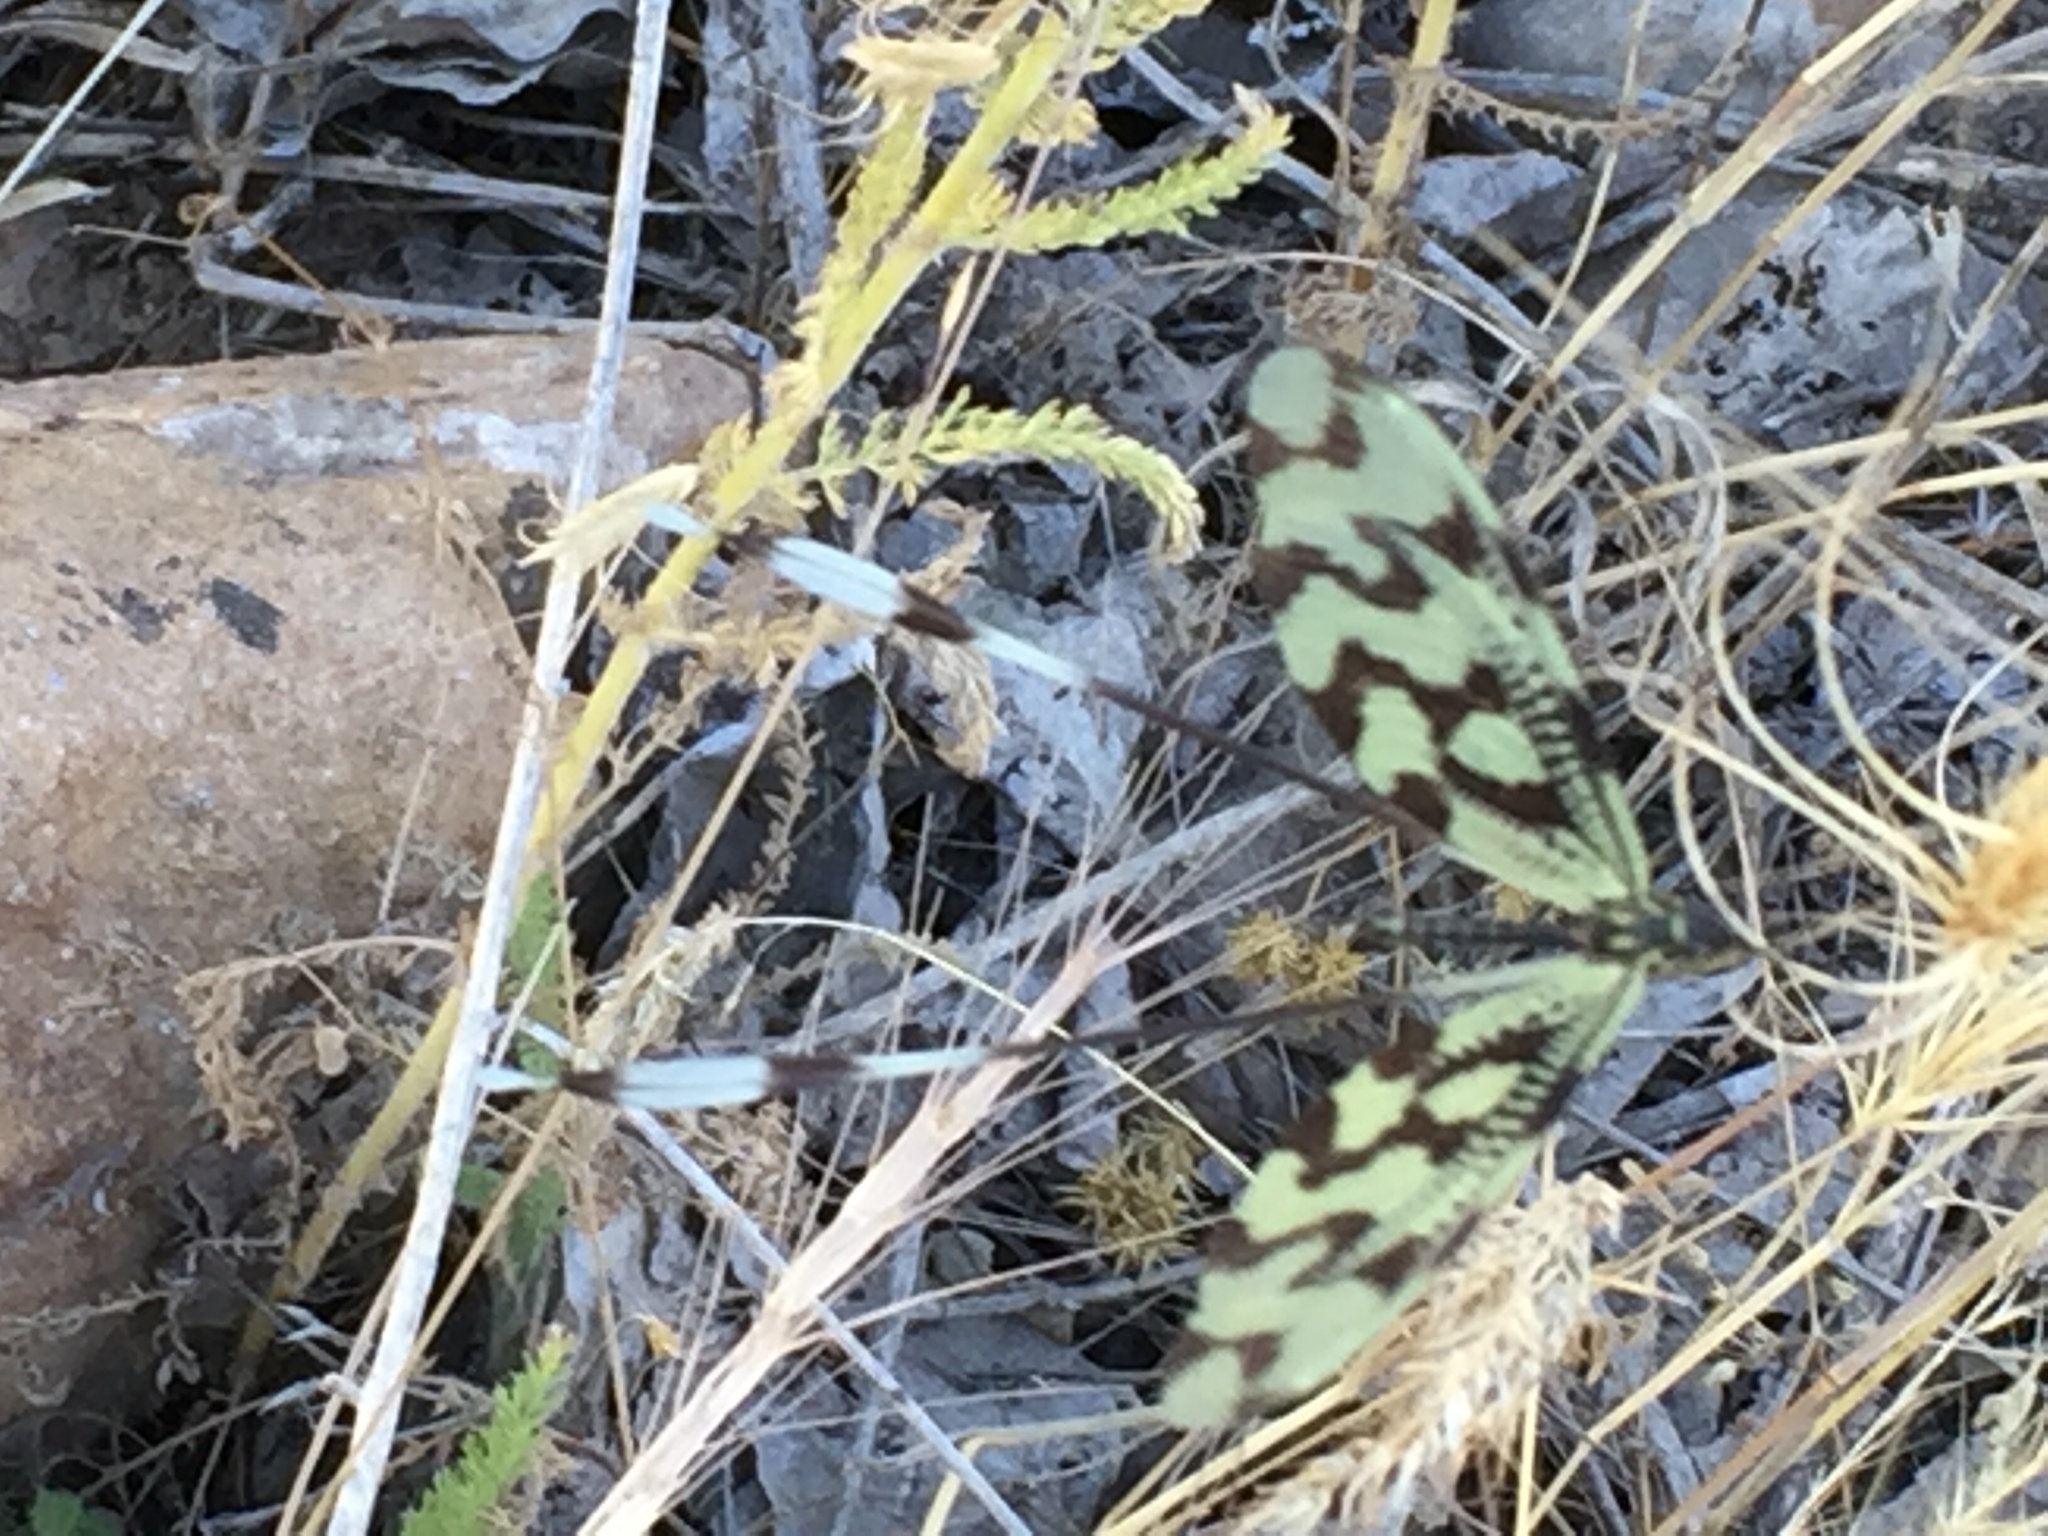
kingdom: Animalia
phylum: Arthropoda
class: Insecta
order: Neuroptera
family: Nemopteridae
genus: Nemoptera
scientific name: Nemoptera sinuata
